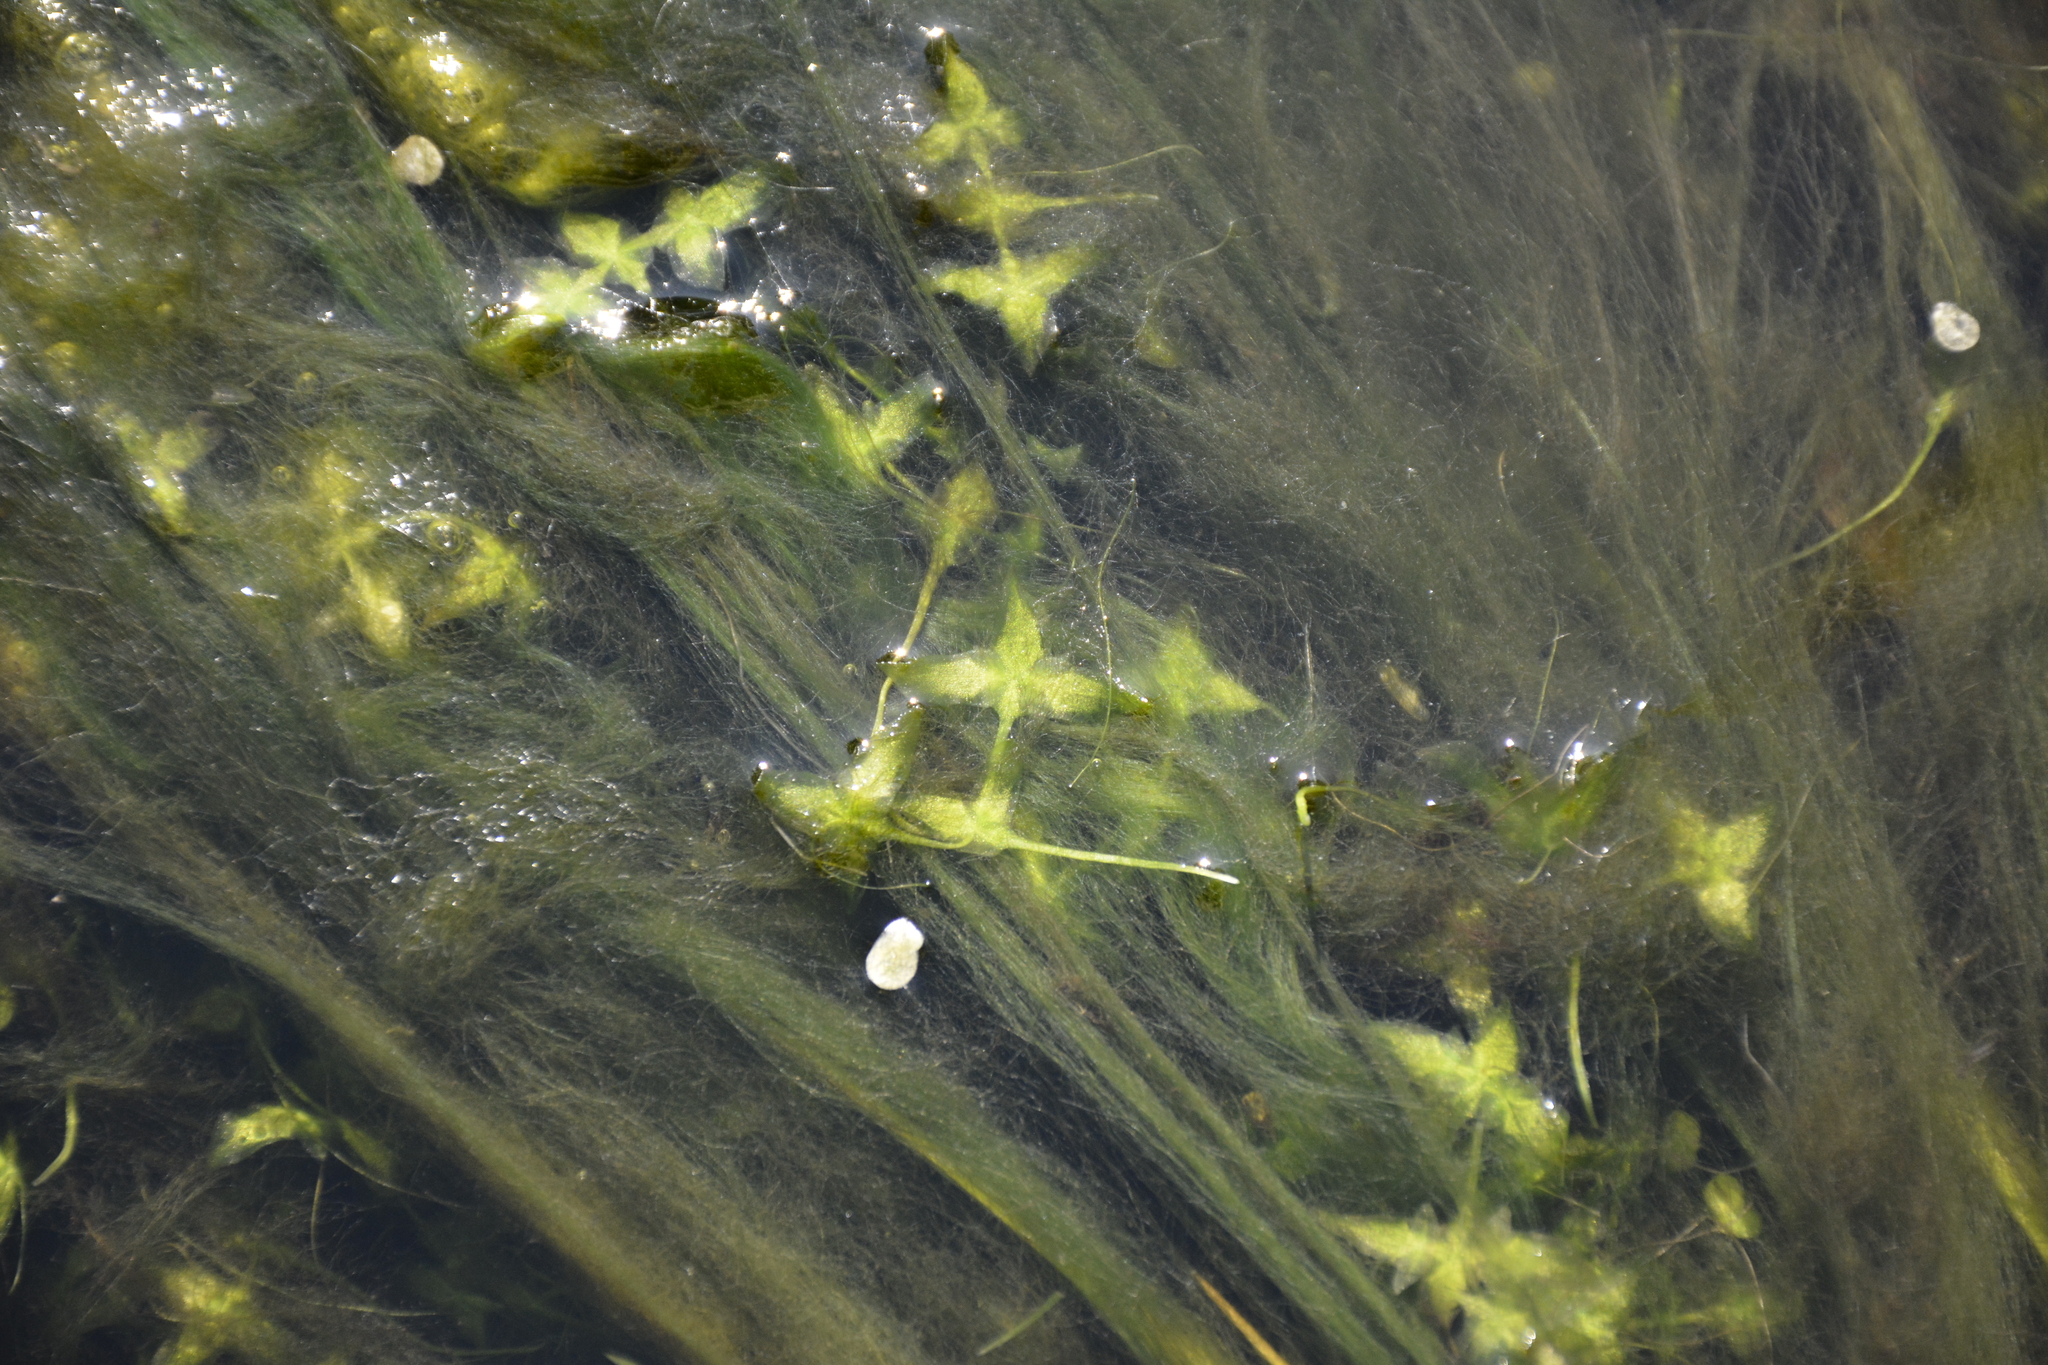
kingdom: Plantae
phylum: Tracheophyta
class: Liliopsida
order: Alismatales
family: Araceae
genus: Lemna
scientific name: Lemna trisulca
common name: Ivy-leaved duckweed
